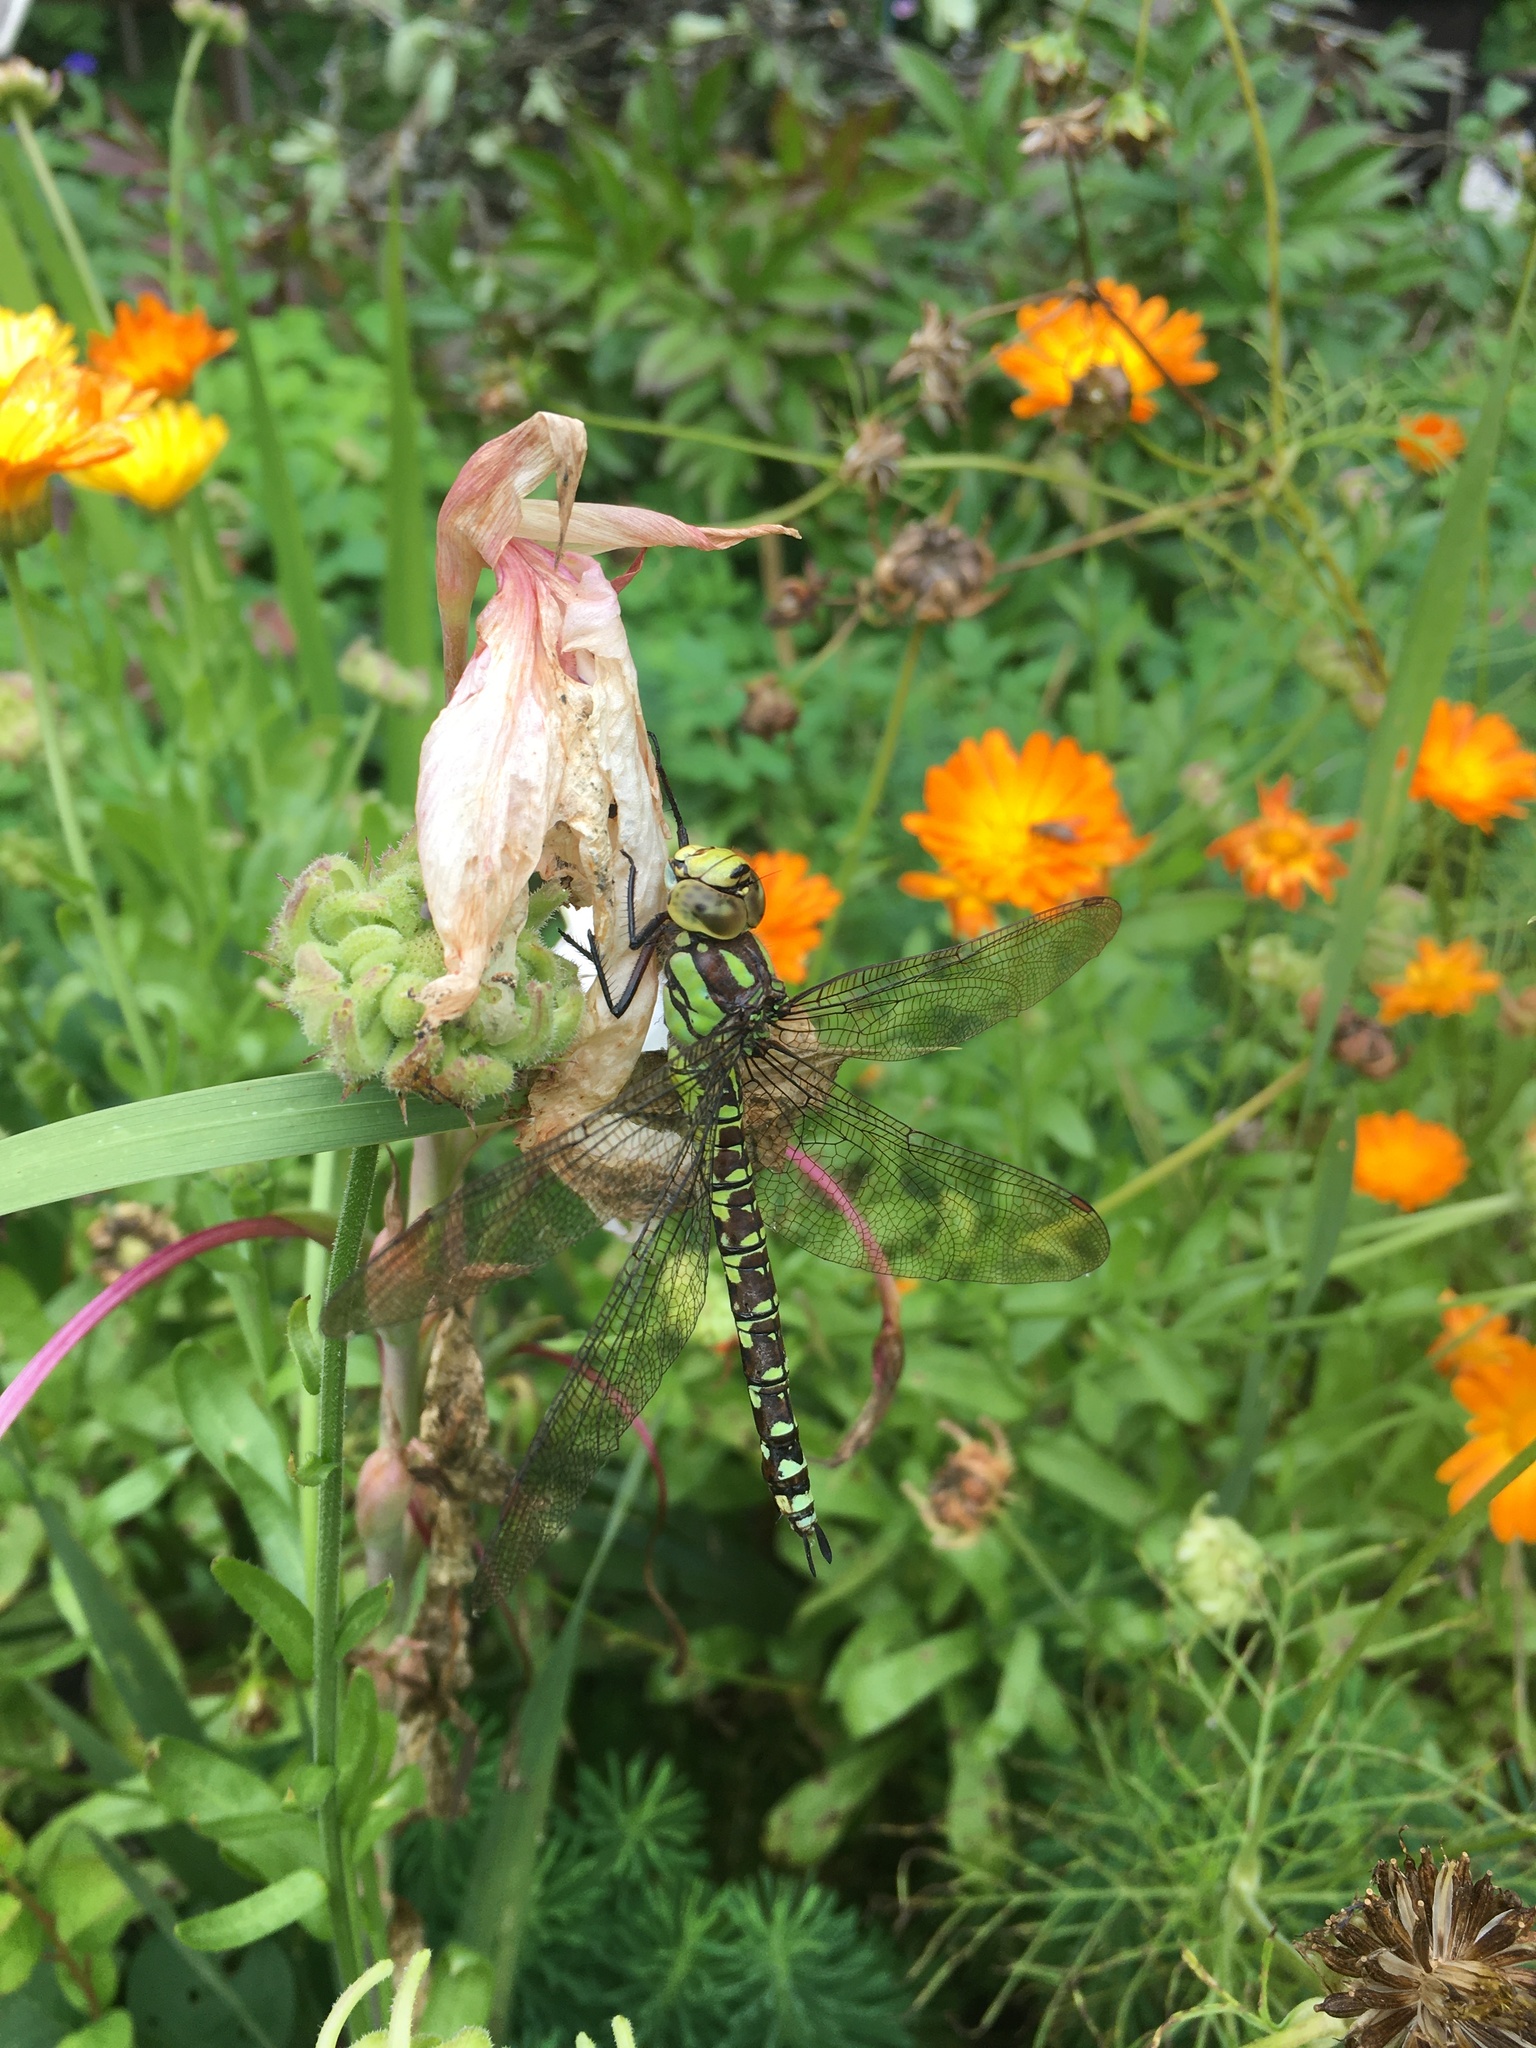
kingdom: Animalia
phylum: Arthropoda
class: Insecta
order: Odonata
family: Aeshnidae
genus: Aeshna
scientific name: Aeshna cyanea
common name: Southern hawker
